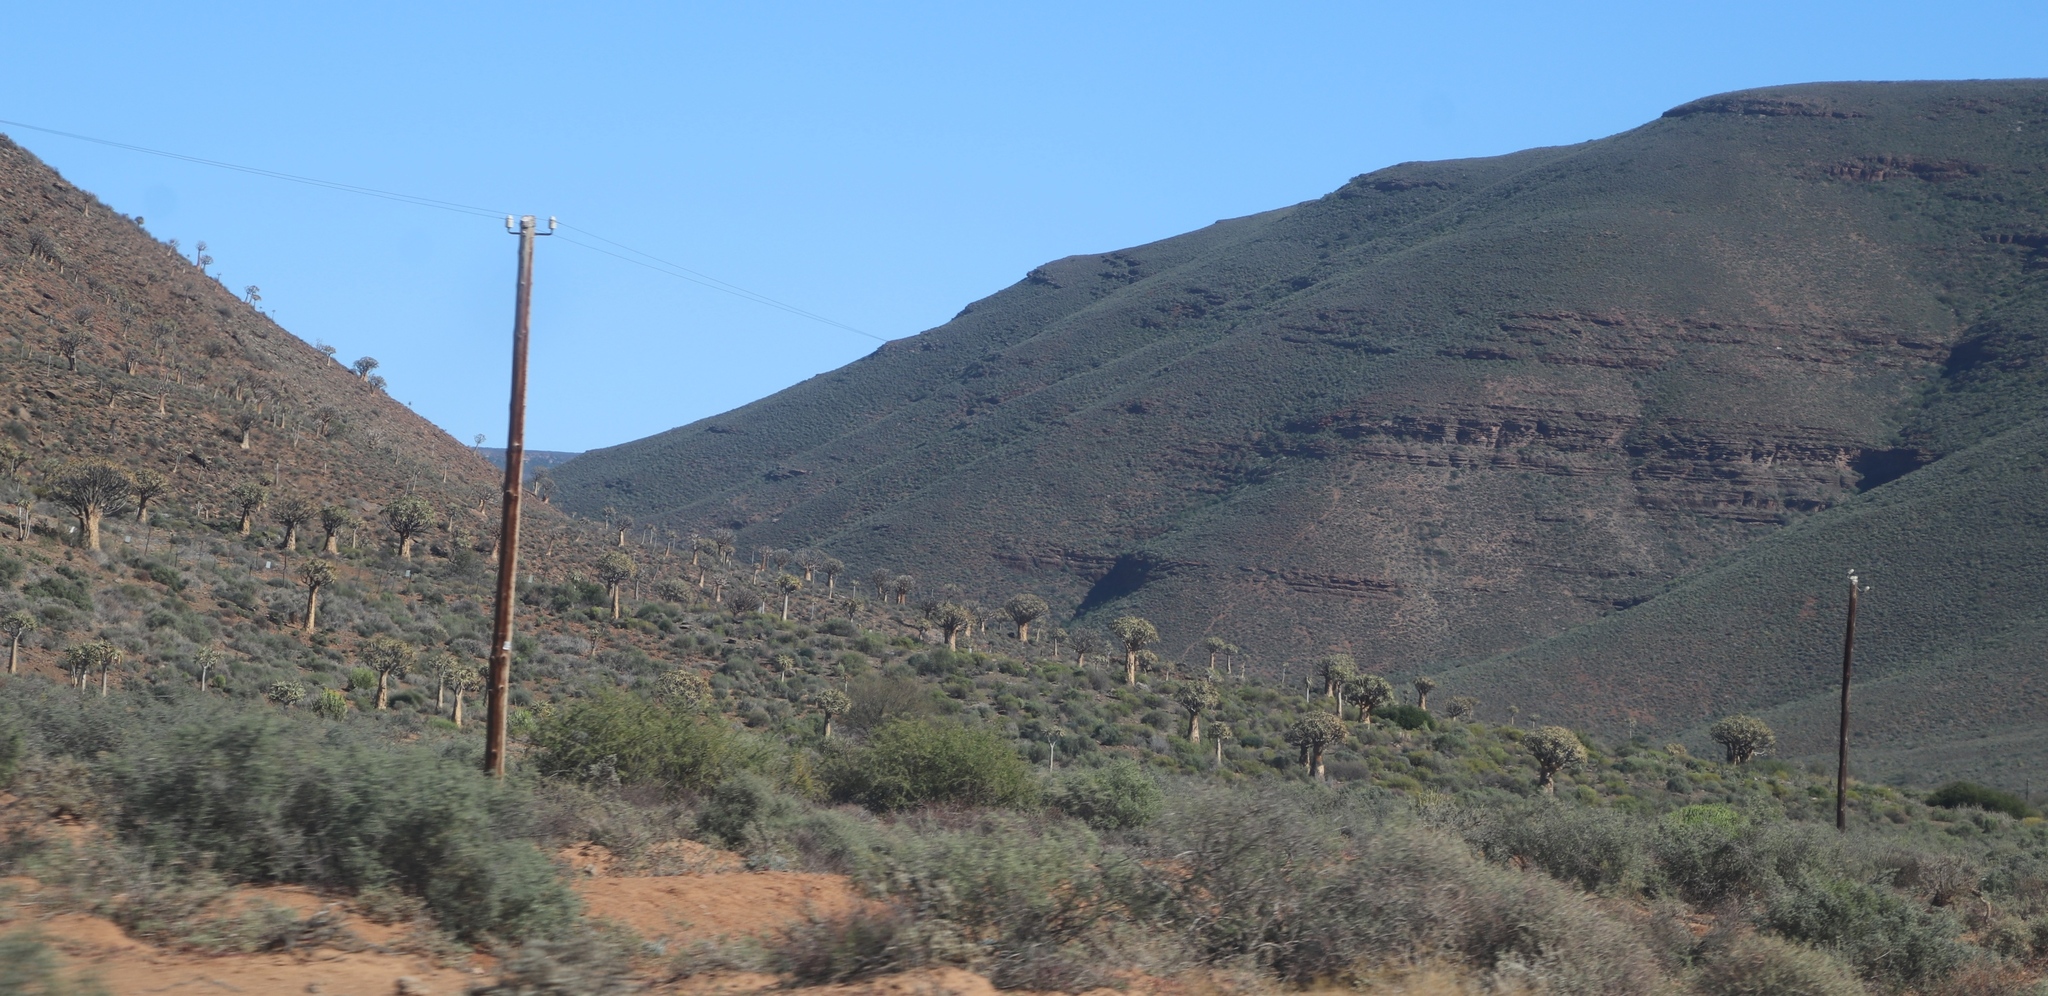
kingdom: Plantae
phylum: Tracheophyta
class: Liliopsida
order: Asparagales
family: Asphodelaceae
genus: Aloidendron
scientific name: Aloidendron dichotomum
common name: Quiver tree
